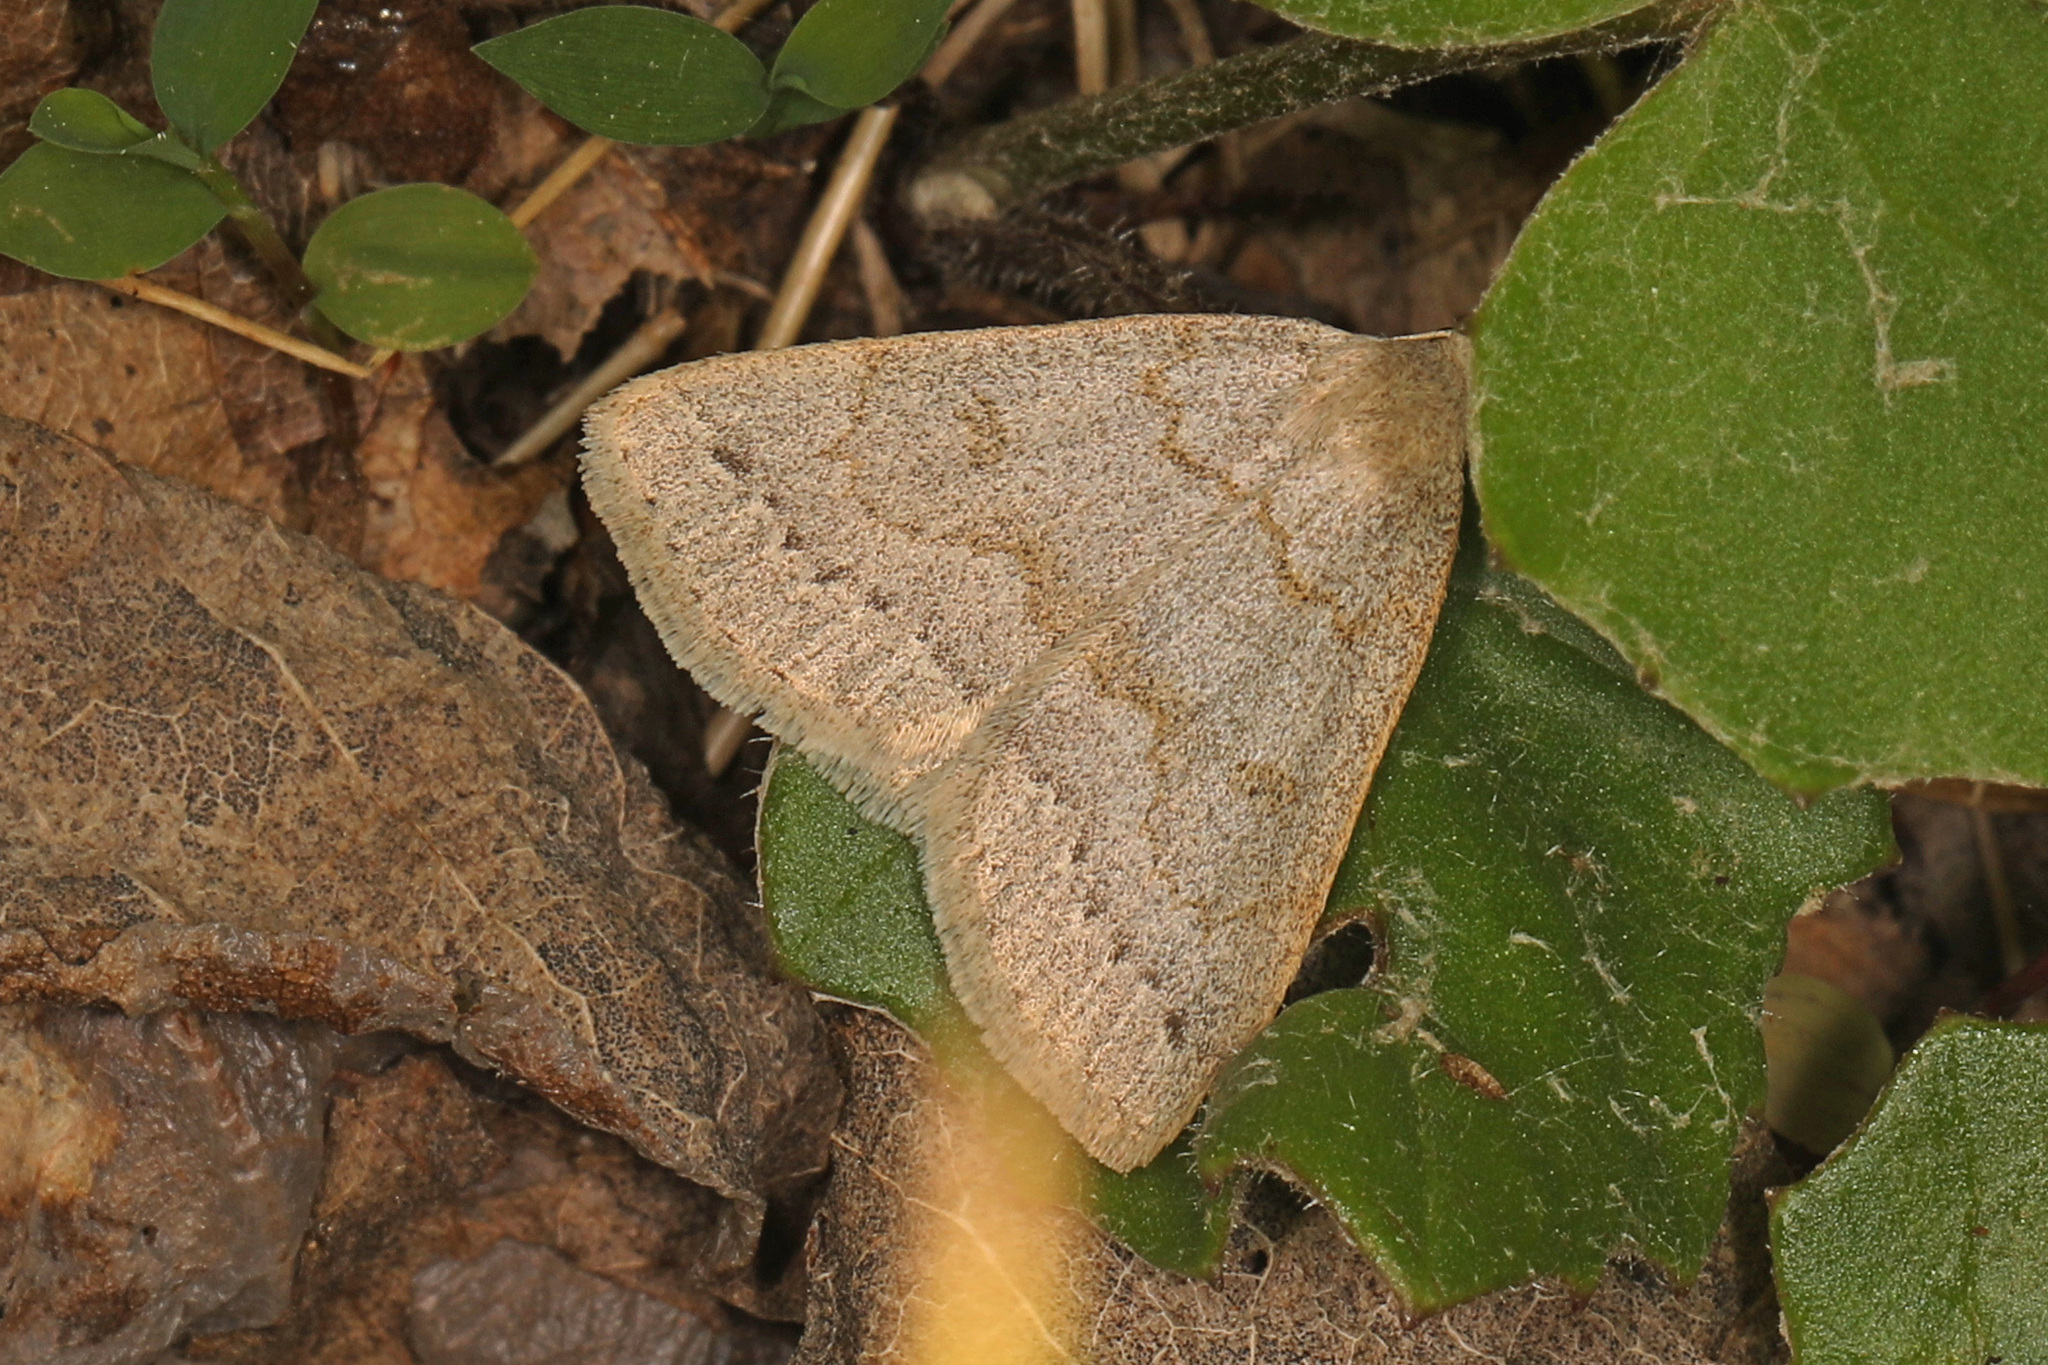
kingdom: Animalia
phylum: Arthropoda
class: Insecta
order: Lepidoptera
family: Erebidae
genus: Macrochilo
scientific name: Macrochilo morbidalis
